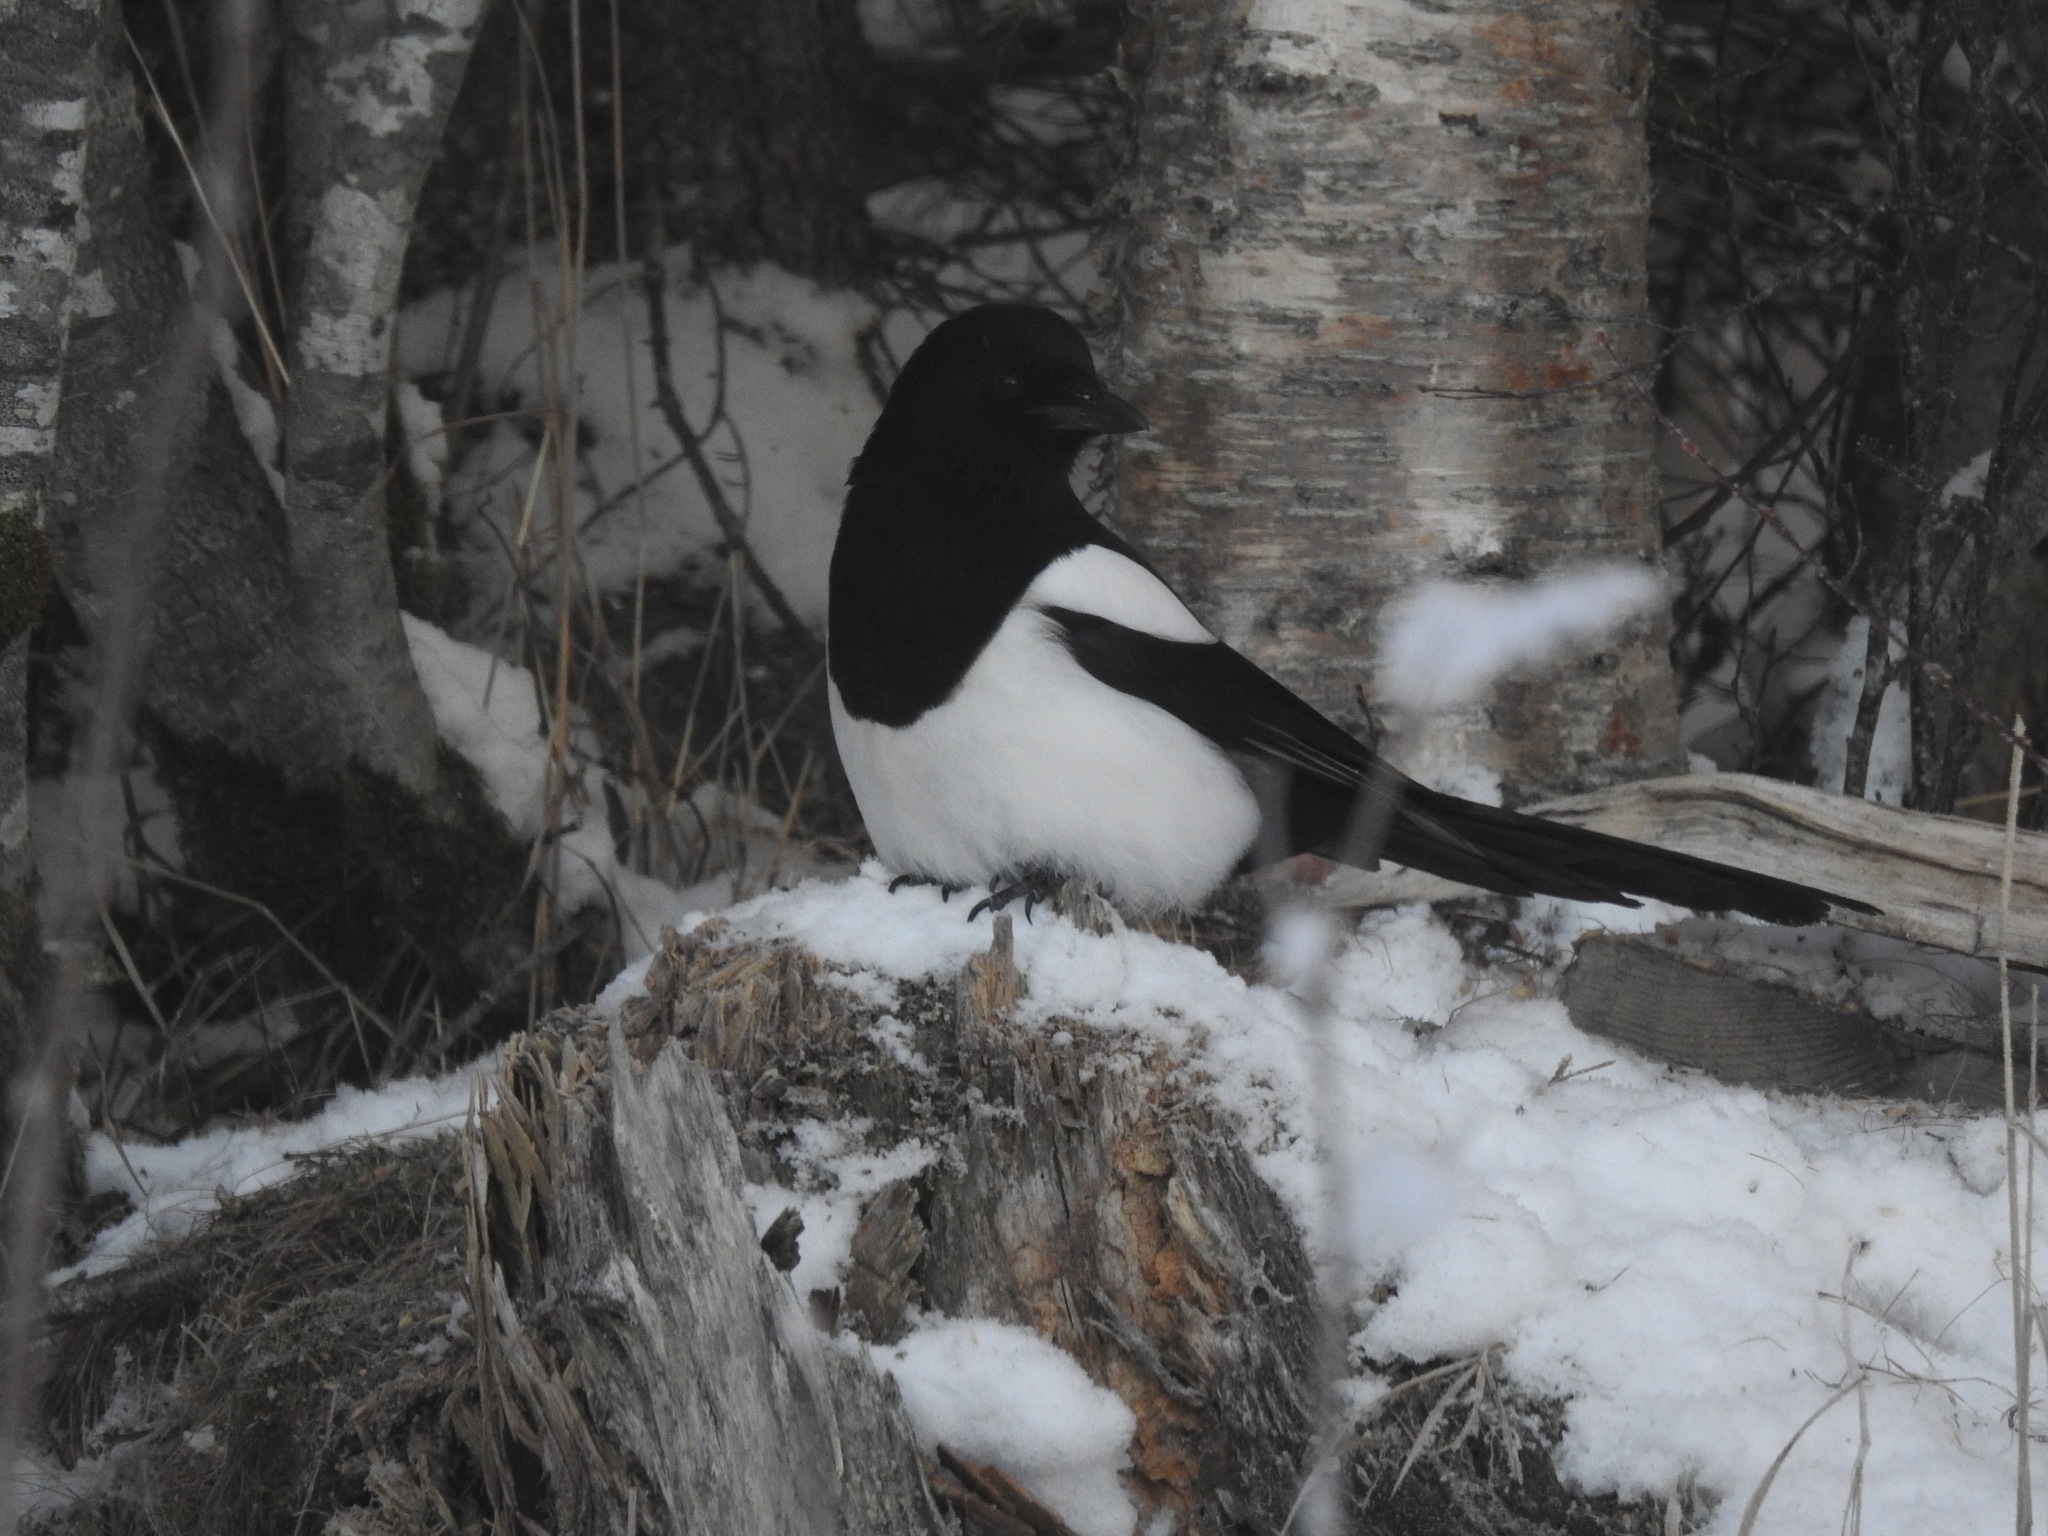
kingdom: Animalia
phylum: Chordata
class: Aves
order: Passeriformes
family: Corvidae
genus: Pica
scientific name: Pica pica
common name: Eurasian magpie
